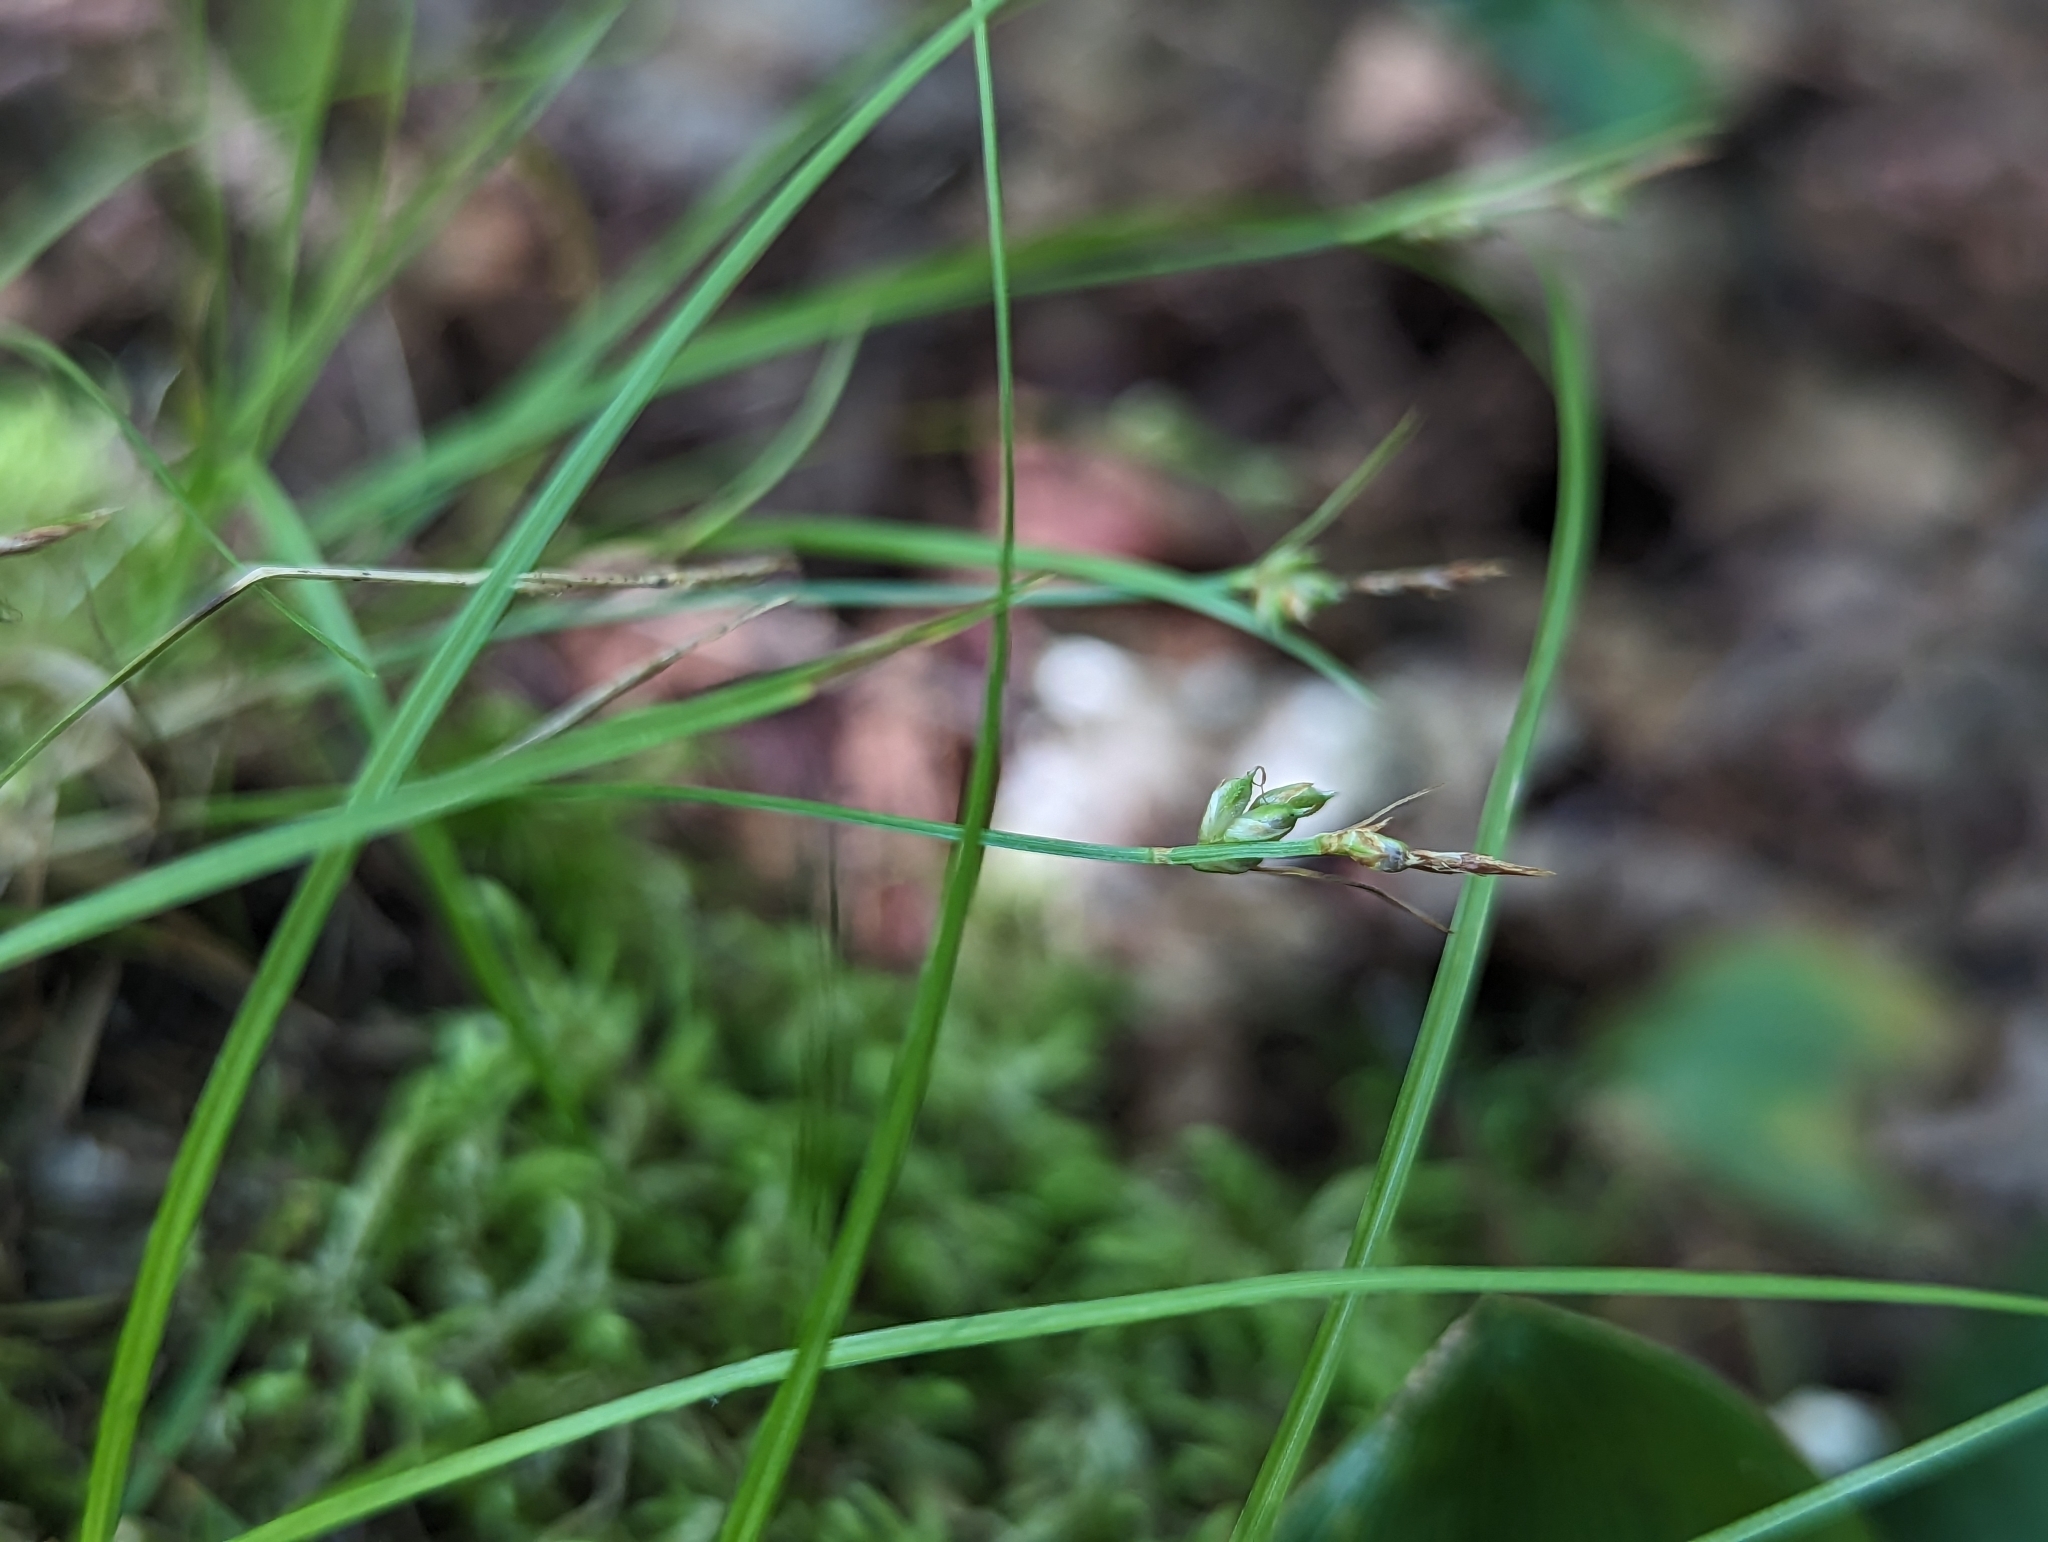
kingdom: Plantae
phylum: Tracheophyta
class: Liliopsida
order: Poales
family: Cyperaceae
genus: Carex
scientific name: Carex novae-angliae
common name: New england sedge
